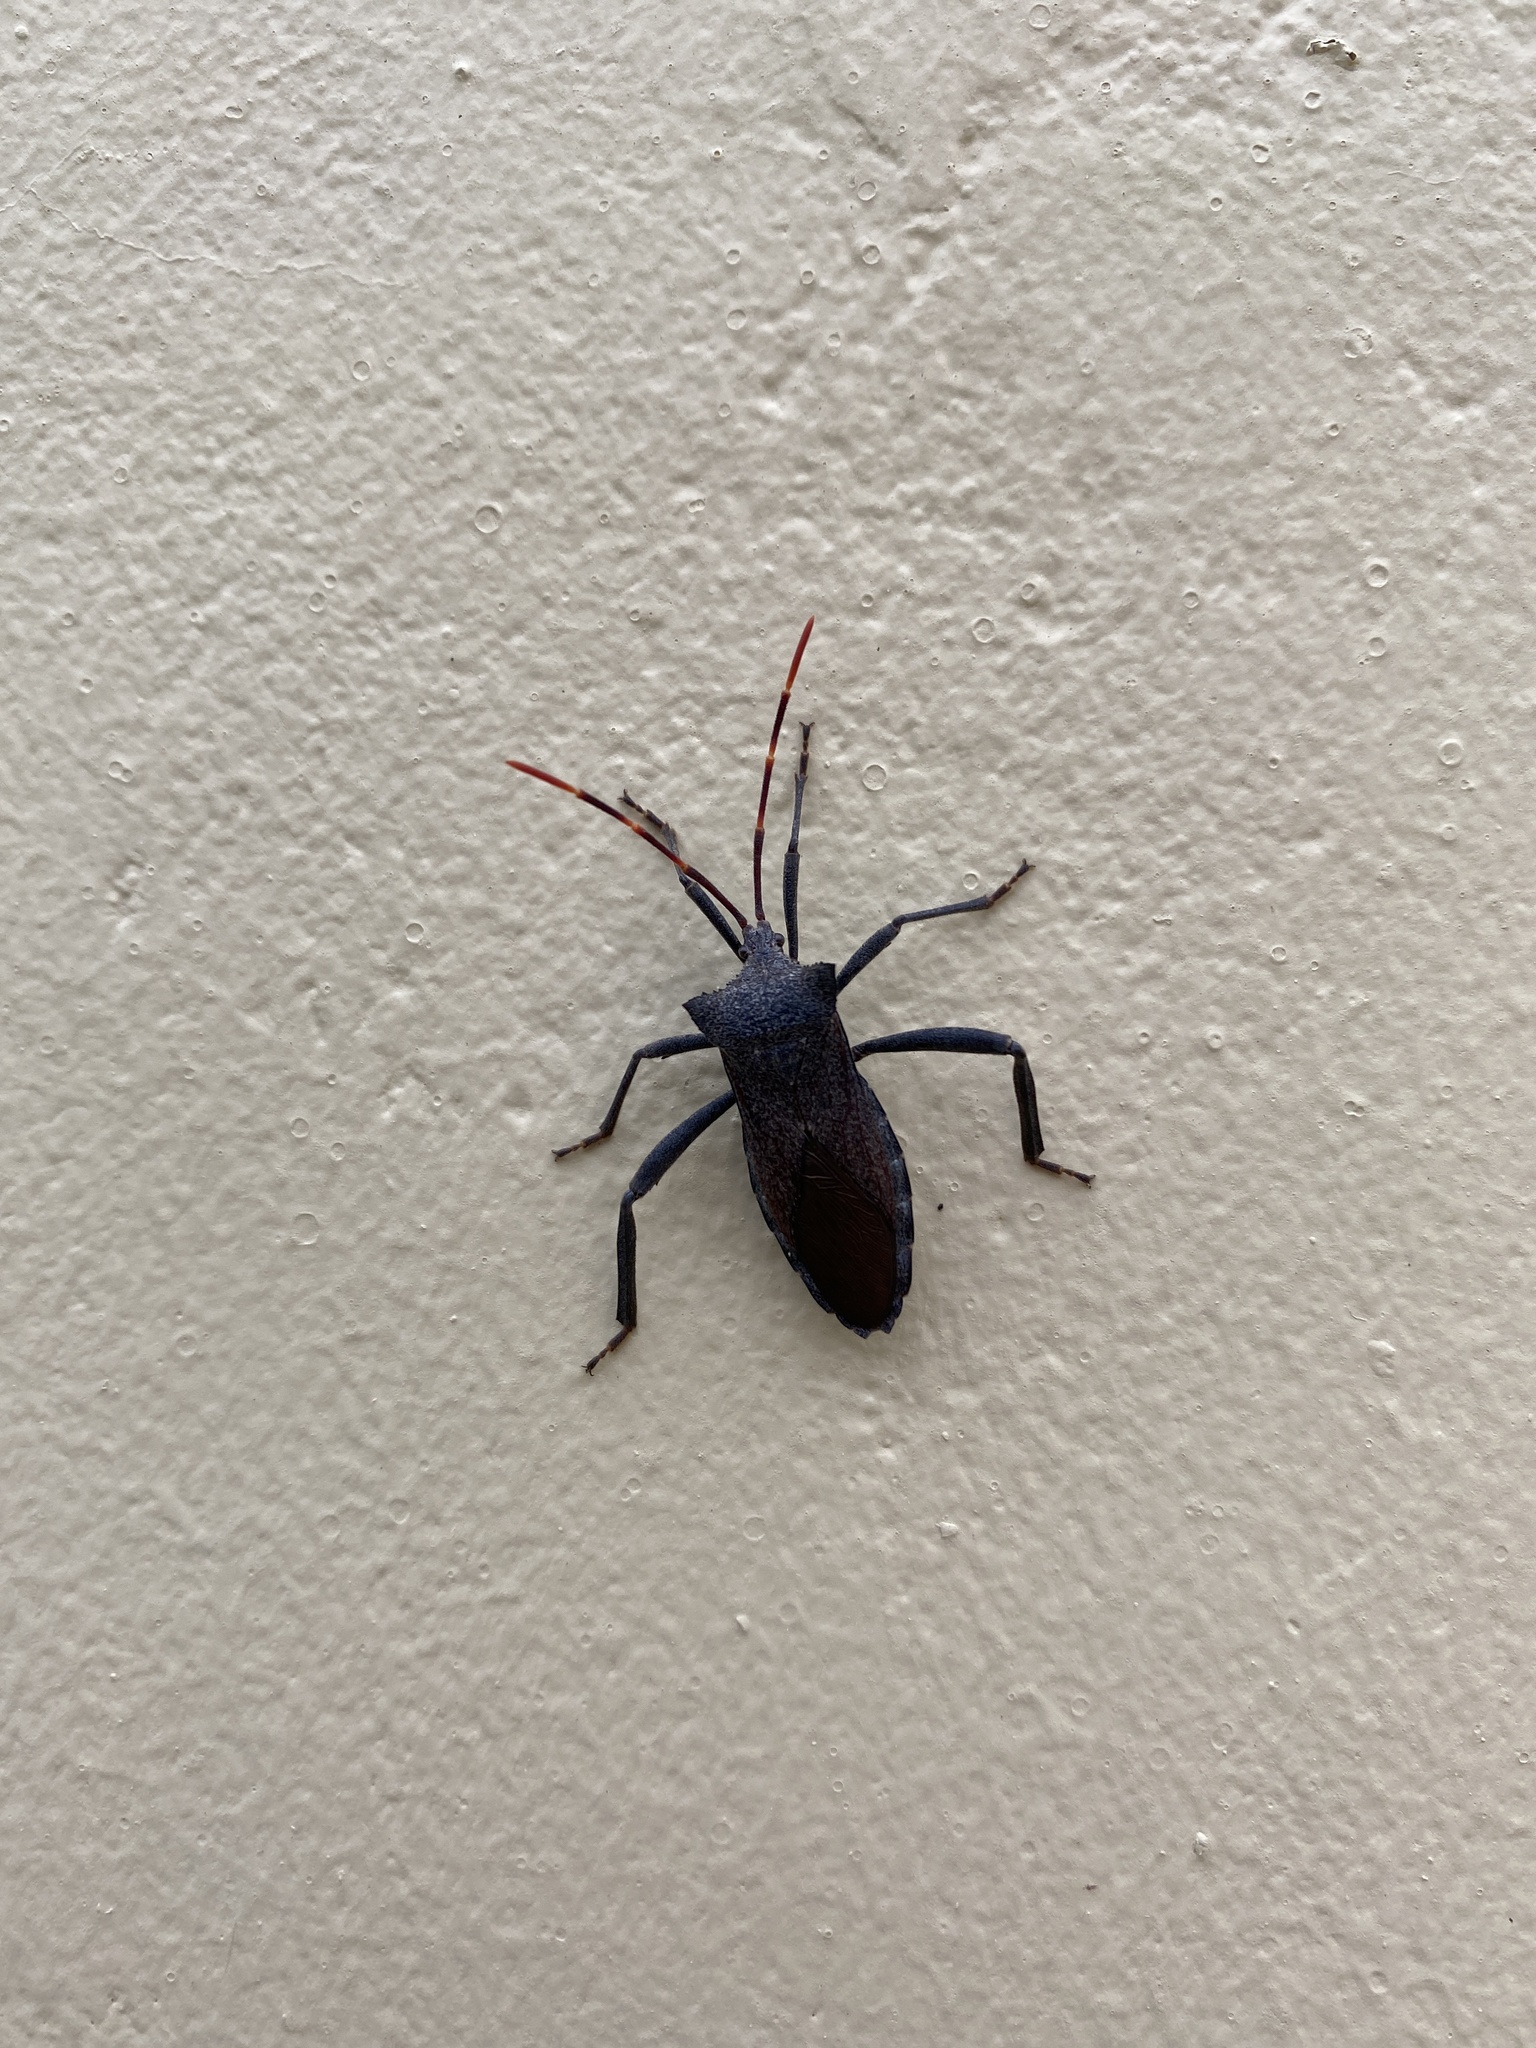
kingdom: Animalia
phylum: Arthropoda
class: Insecta
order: Hemiptera
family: Coreidae
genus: Elasmopoda
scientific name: Elasmopoda valga
